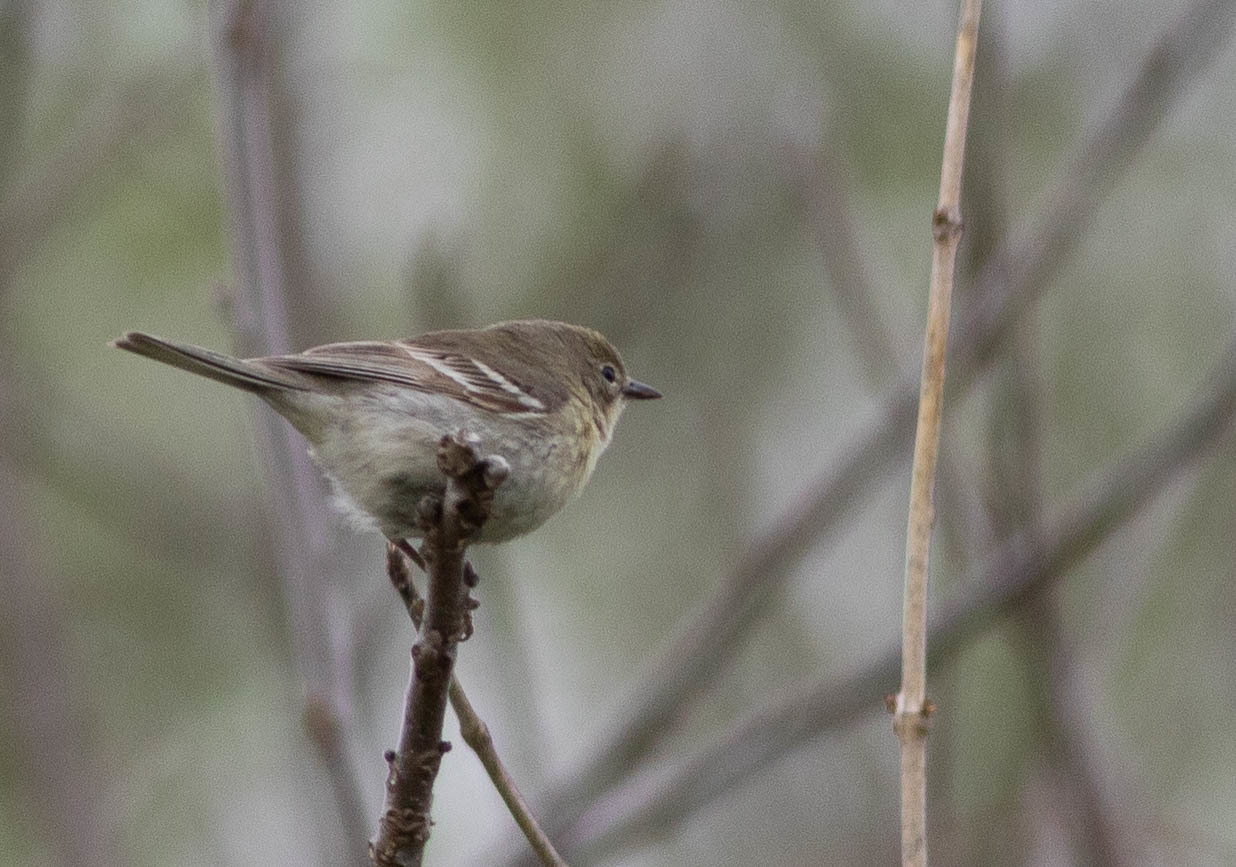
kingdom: Animalia
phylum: Chordata
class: Aves
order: Passeriformes
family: Parulidae
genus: Setophaga
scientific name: Setophaga pinus
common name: Pine warbler
